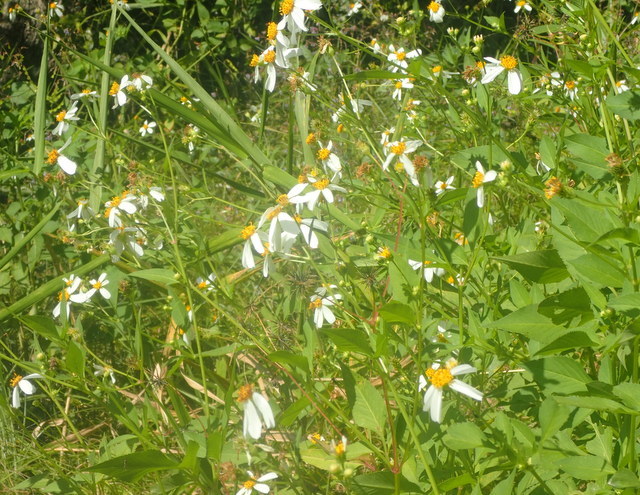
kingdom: Plantae
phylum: Tracheophyta
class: Magnoliopsida
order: Asterales
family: Asteraceae
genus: Bidens
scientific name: Bidens alba
